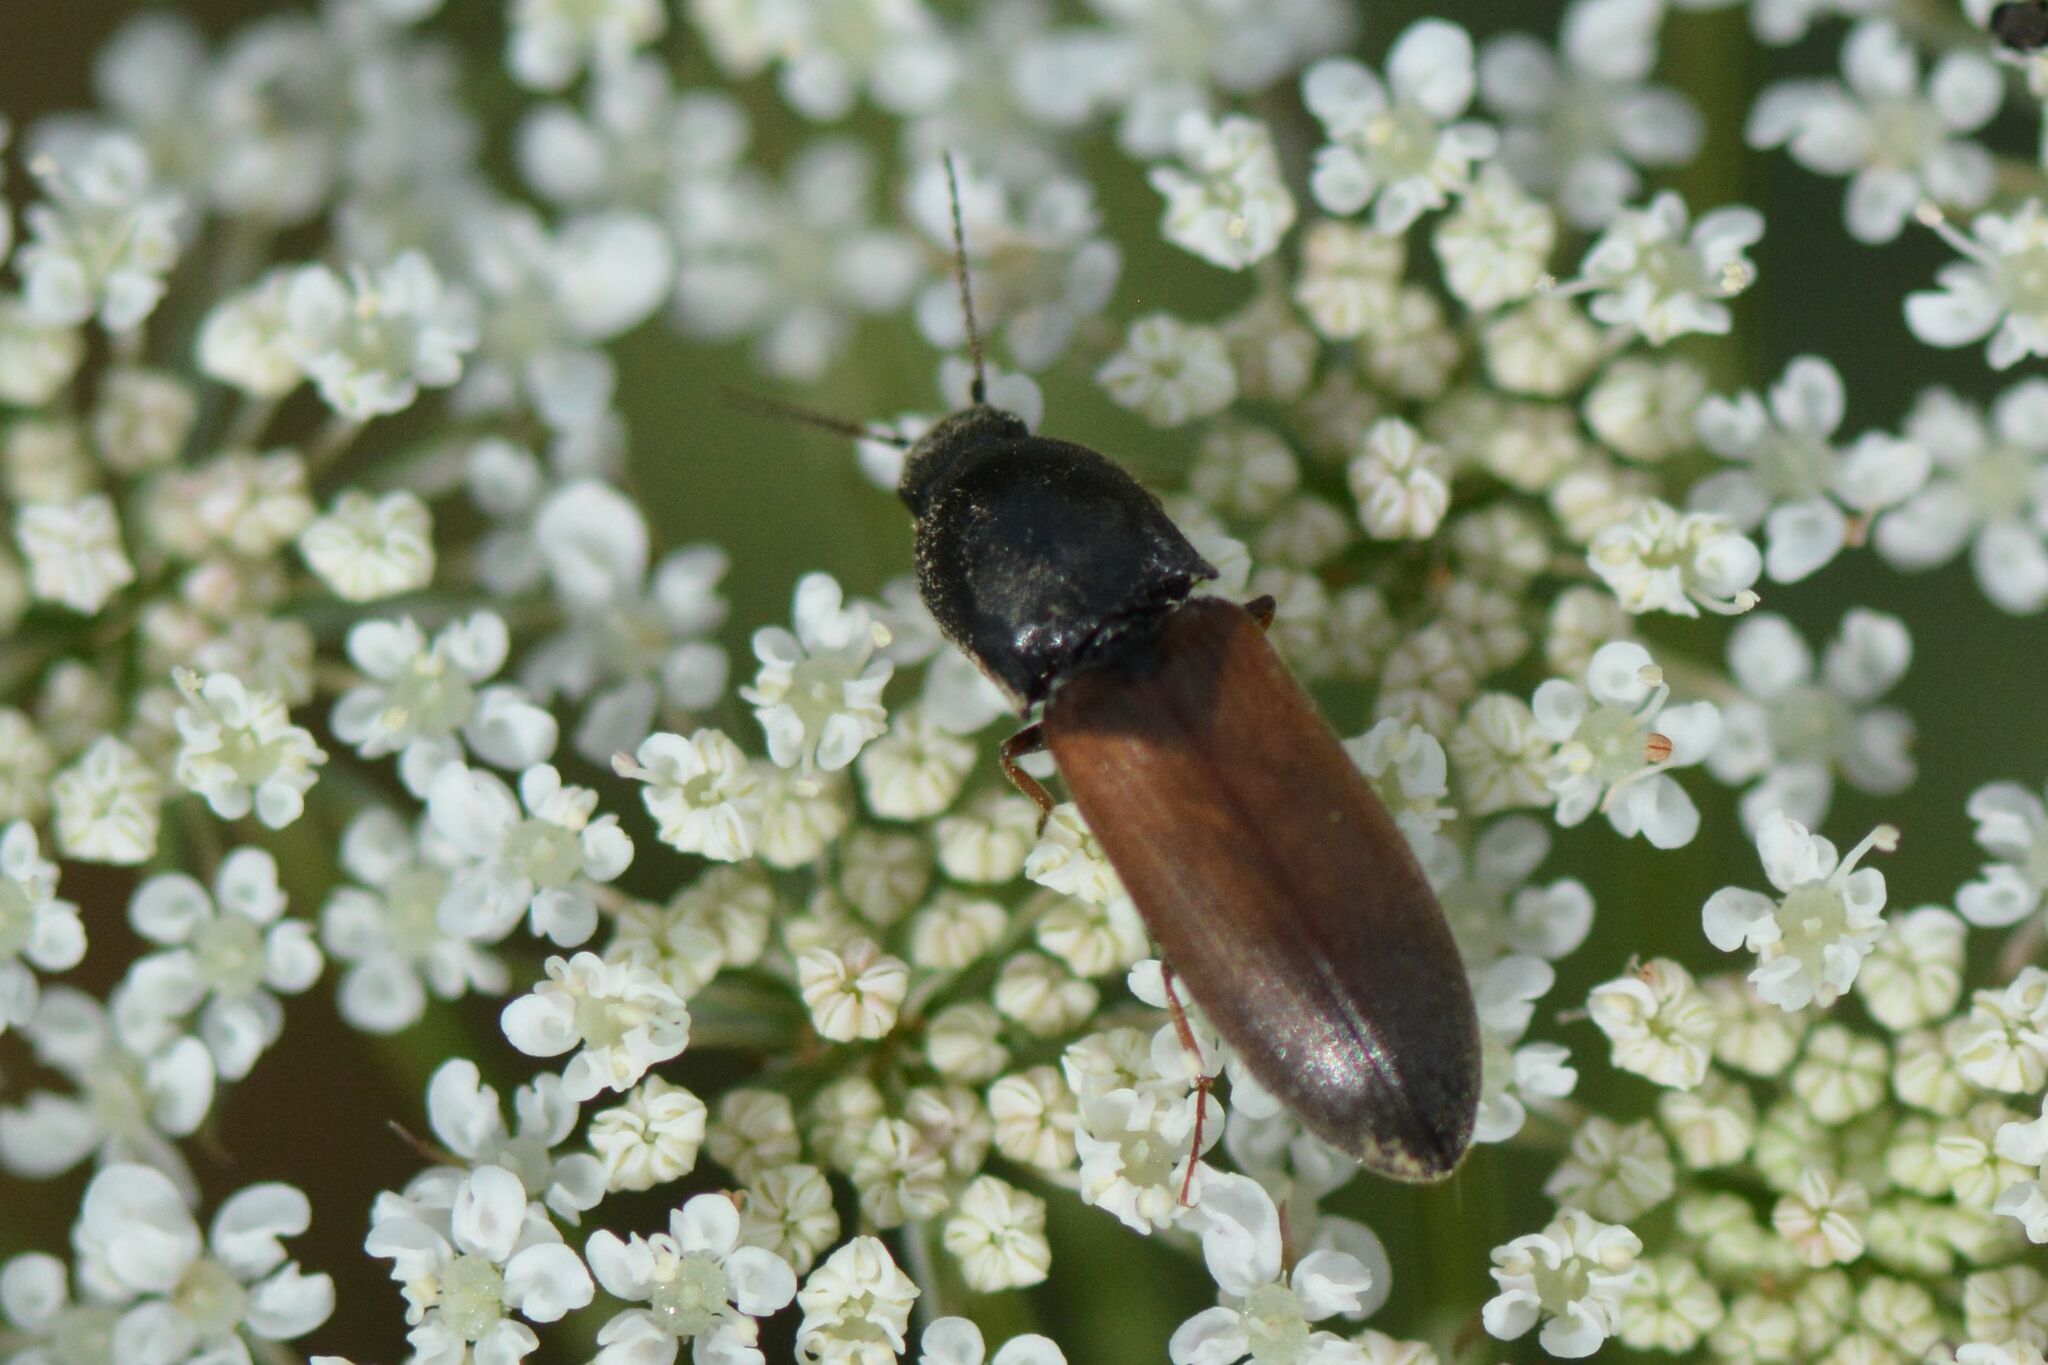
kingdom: Animalia
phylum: Arthropoda
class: Insecta
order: Coleoptera
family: Elateridae
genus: Agriotes
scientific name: Agriotes ustulatus
